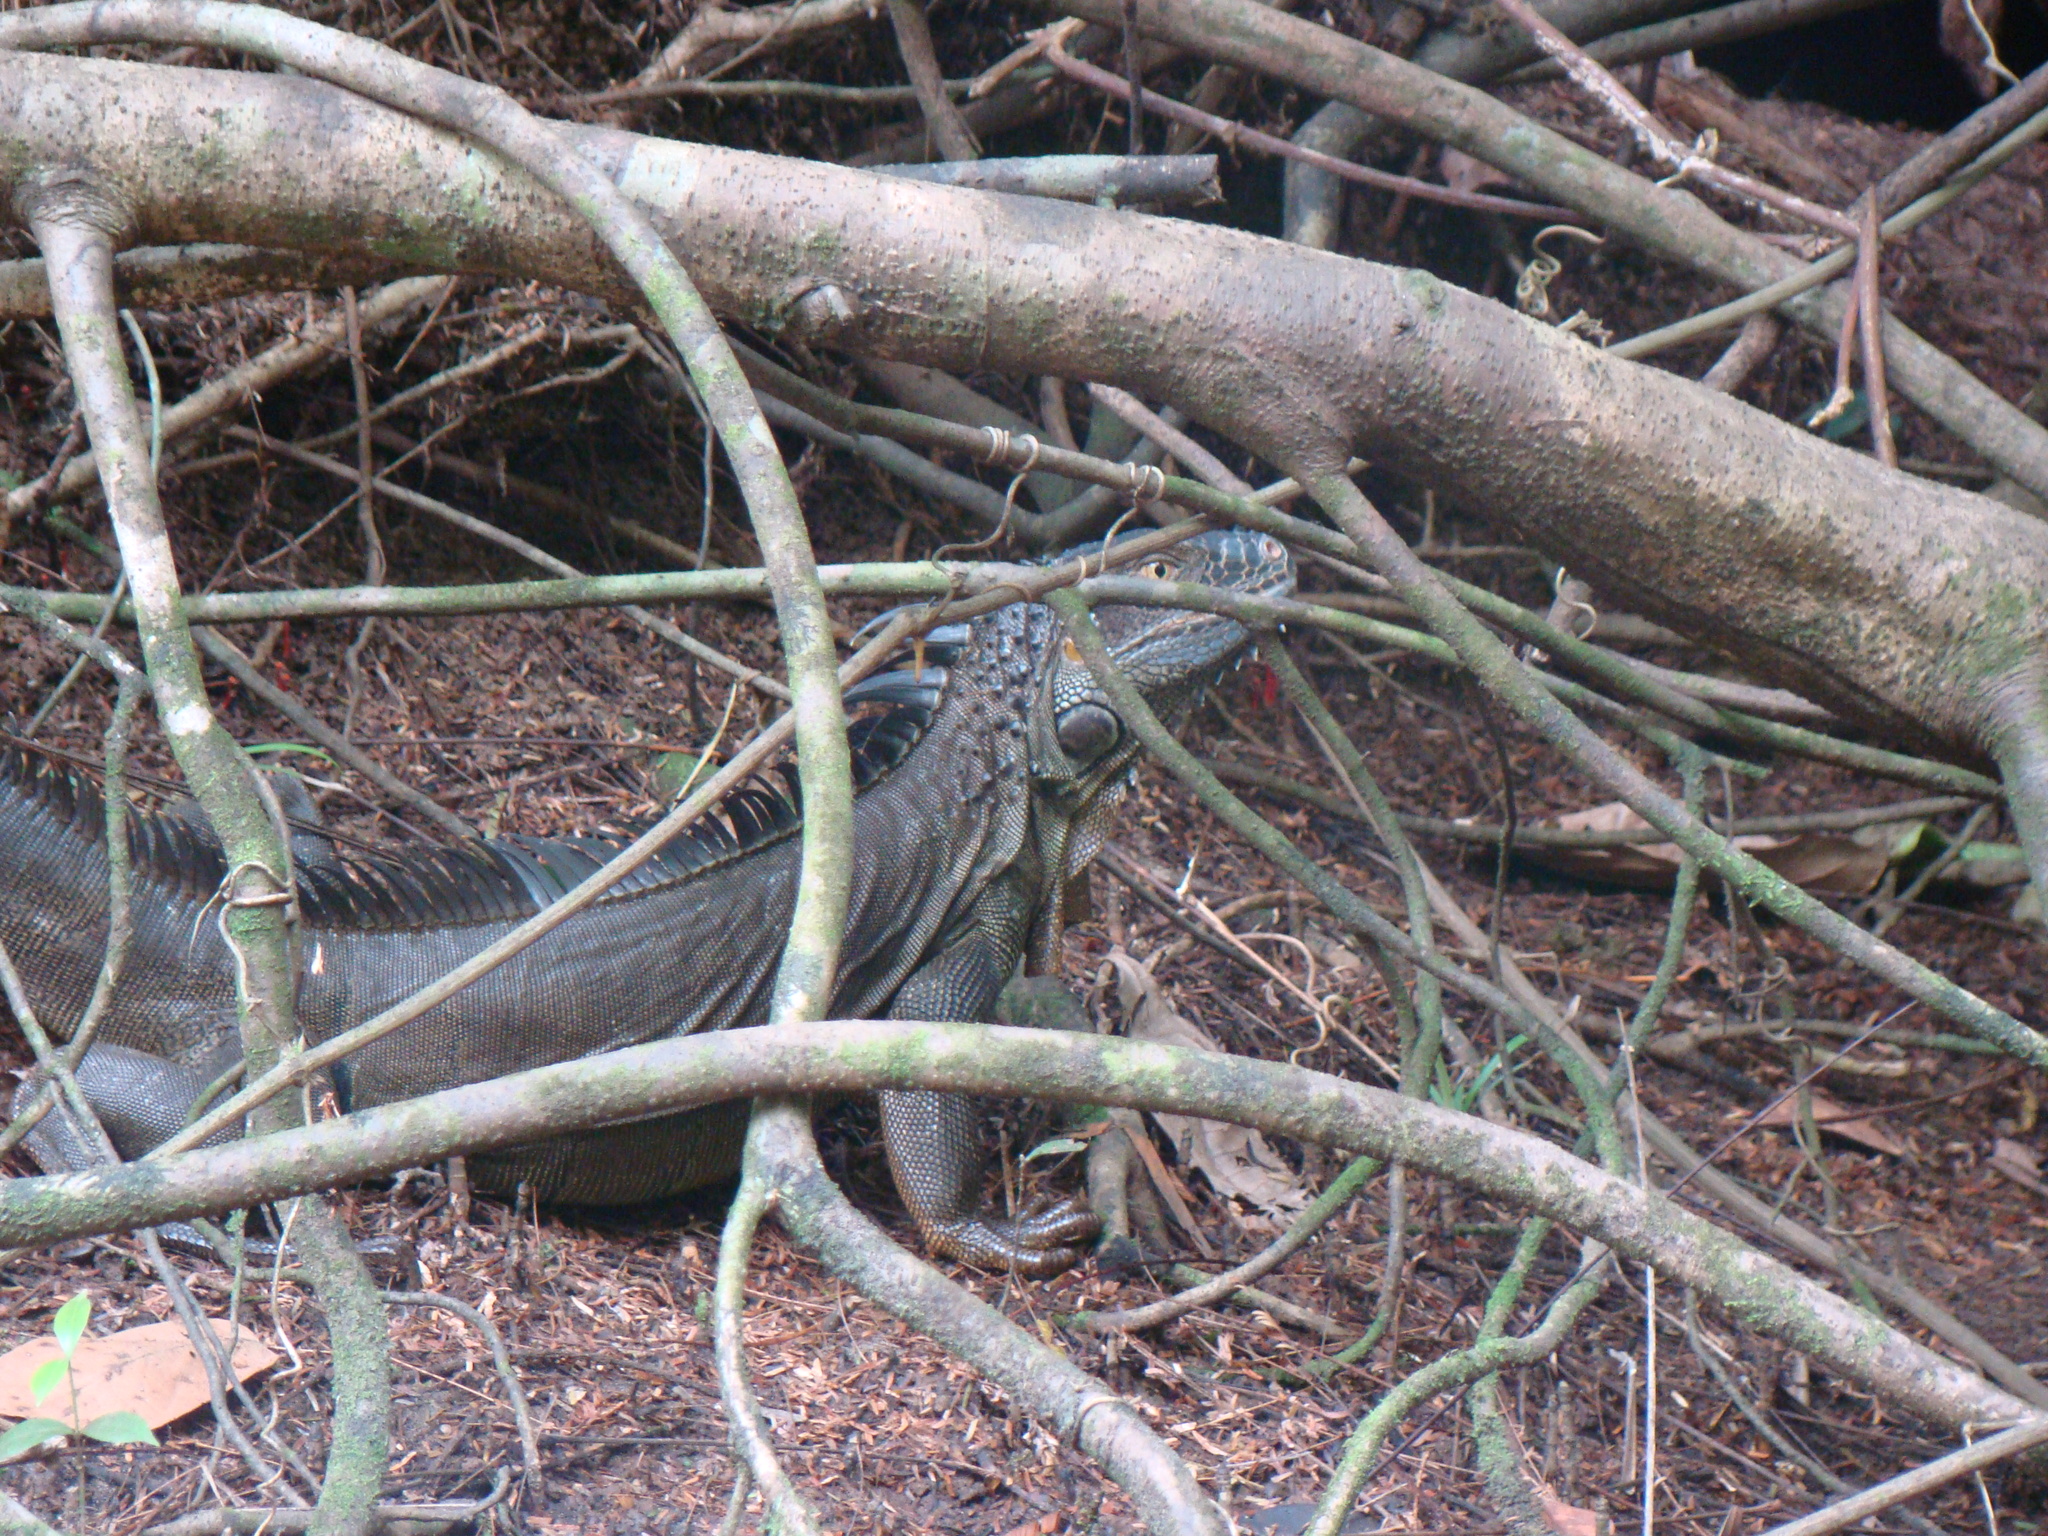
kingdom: Animalia
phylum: Chordata
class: Squamata
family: Iguanidae
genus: Iguana
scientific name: Iguana iguana
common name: Green iguana
